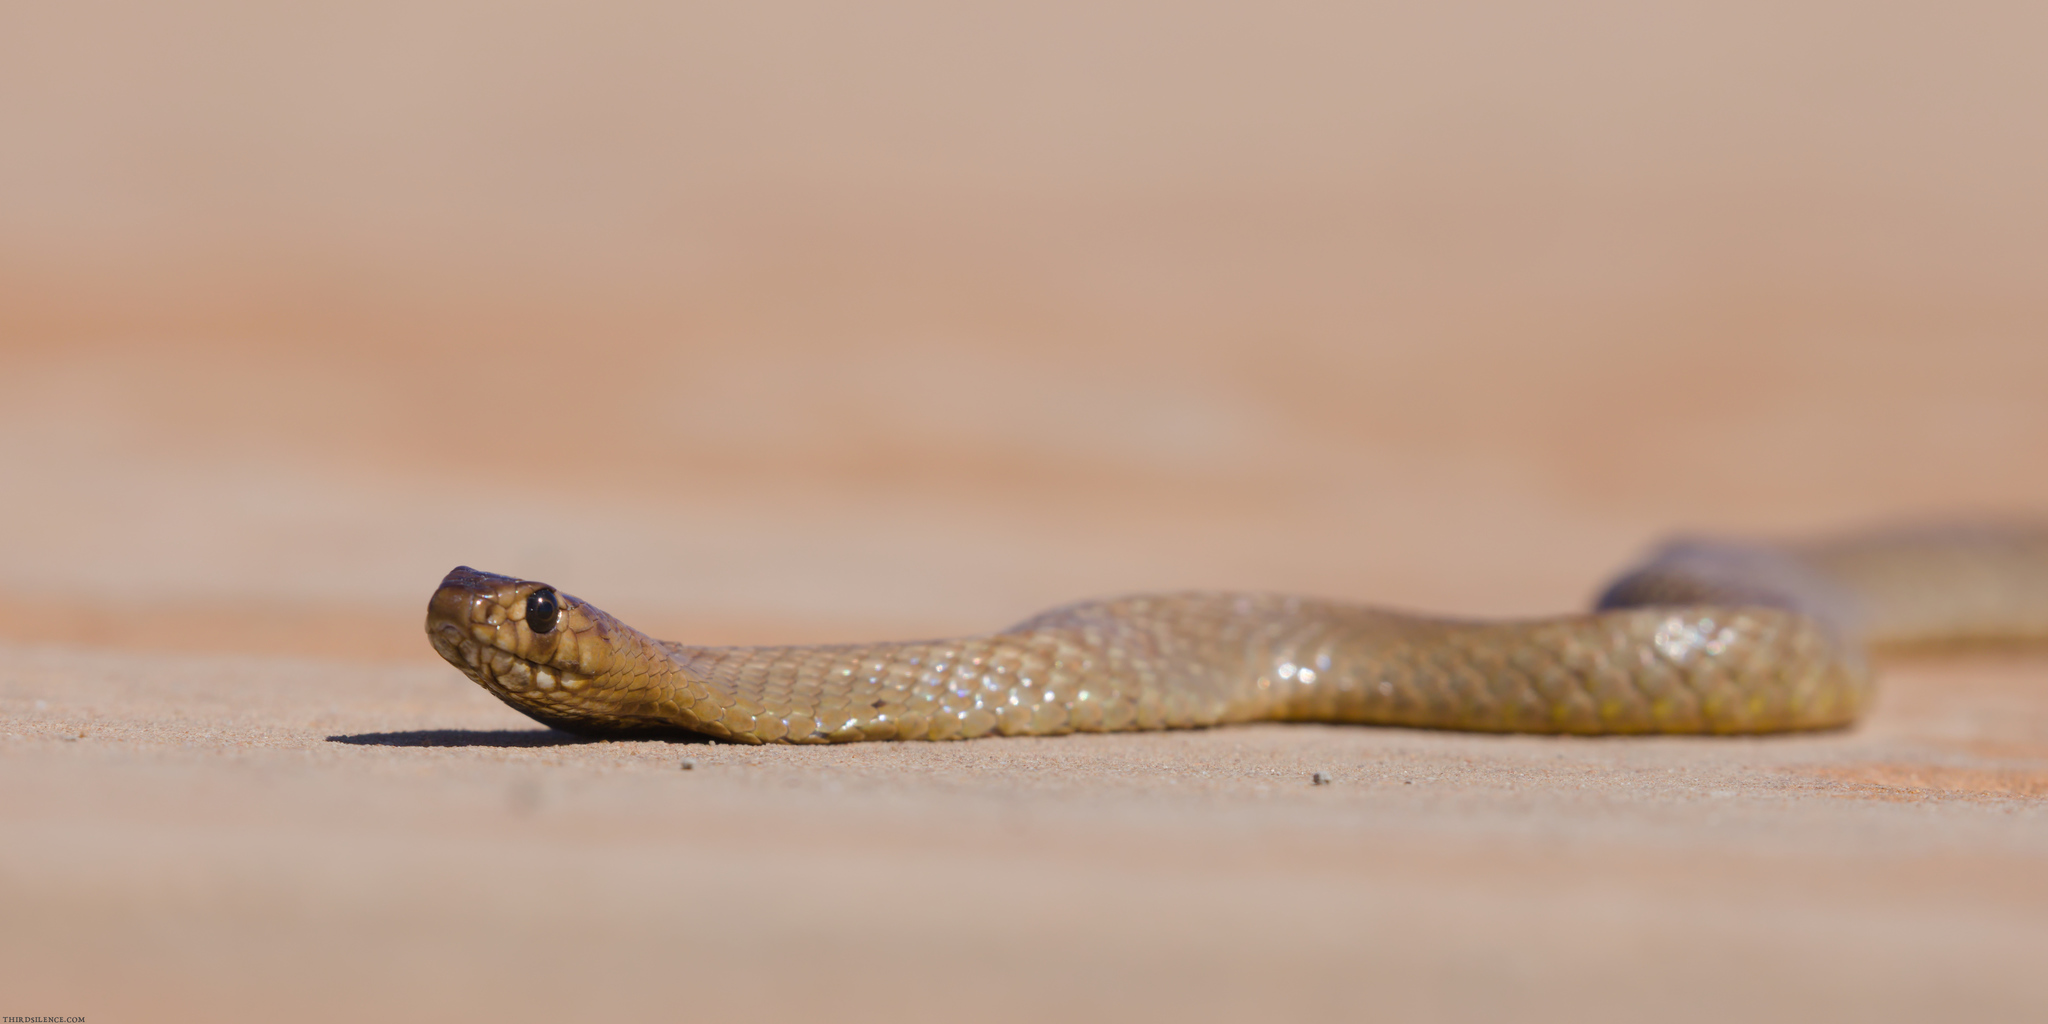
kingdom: Animalia
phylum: Chordata
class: Squamata
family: Elapidae
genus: Pseudonaja
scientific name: Pseudonaja aspidorhyncha
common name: Strap-snouted brown snake
